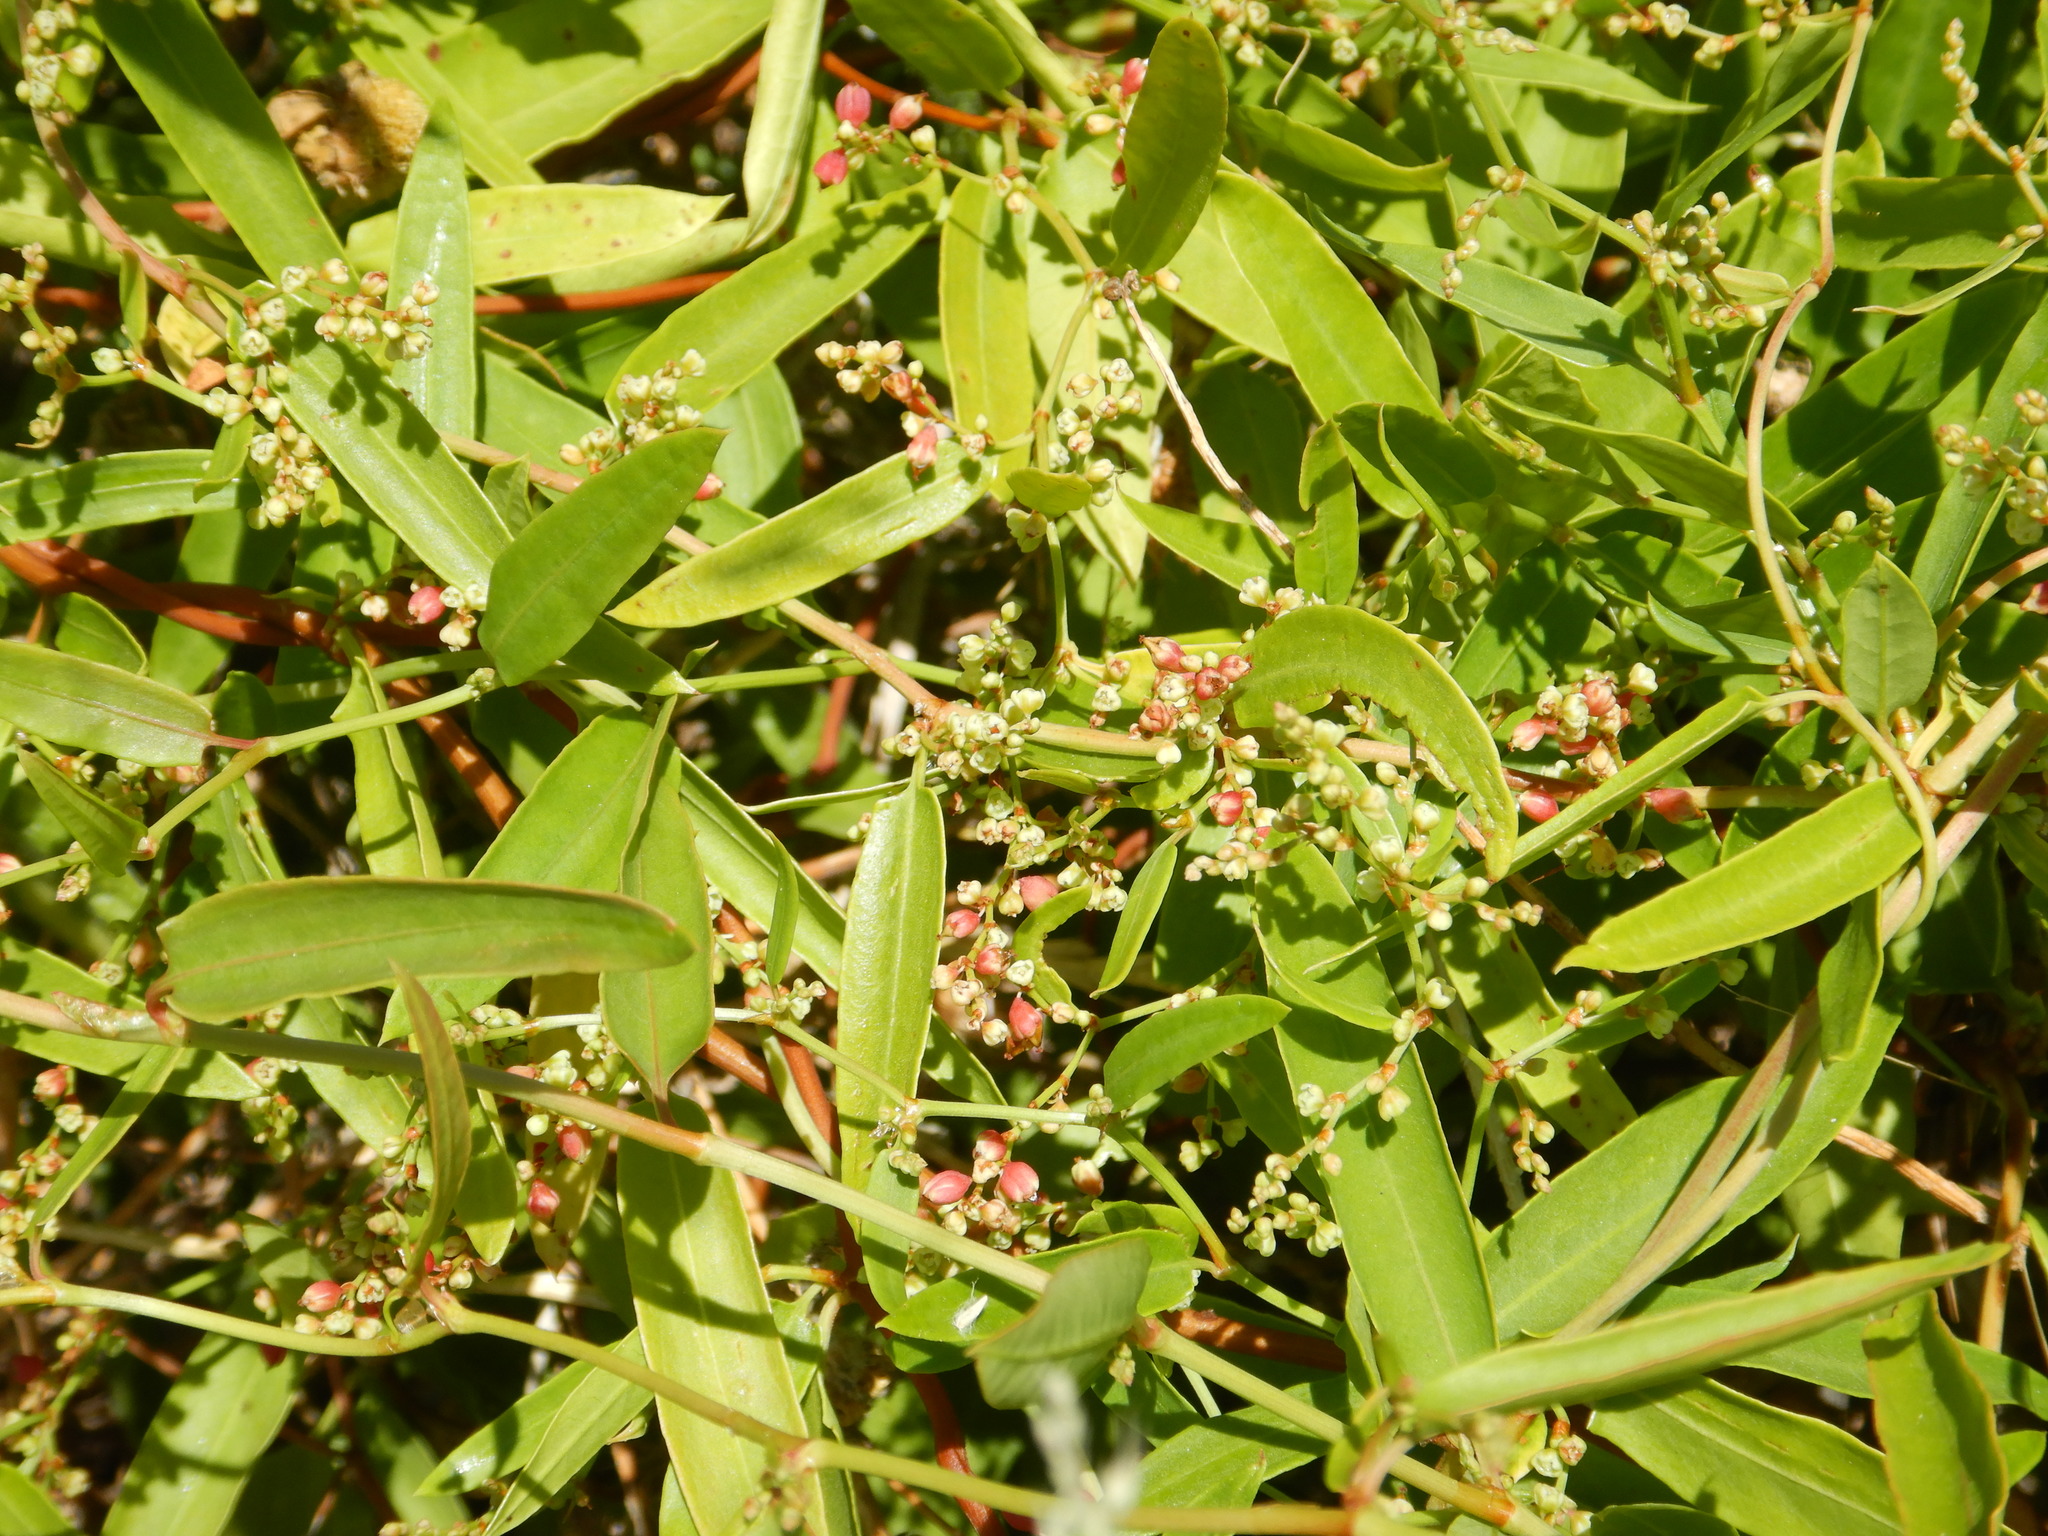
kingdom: Plantae
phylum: Tracheophyta
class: Magnoliopsida
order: Caryophyllales
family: Polygonaceae
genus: Muehlenbeckia
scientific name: Muehlenbeckia sagittifolia
